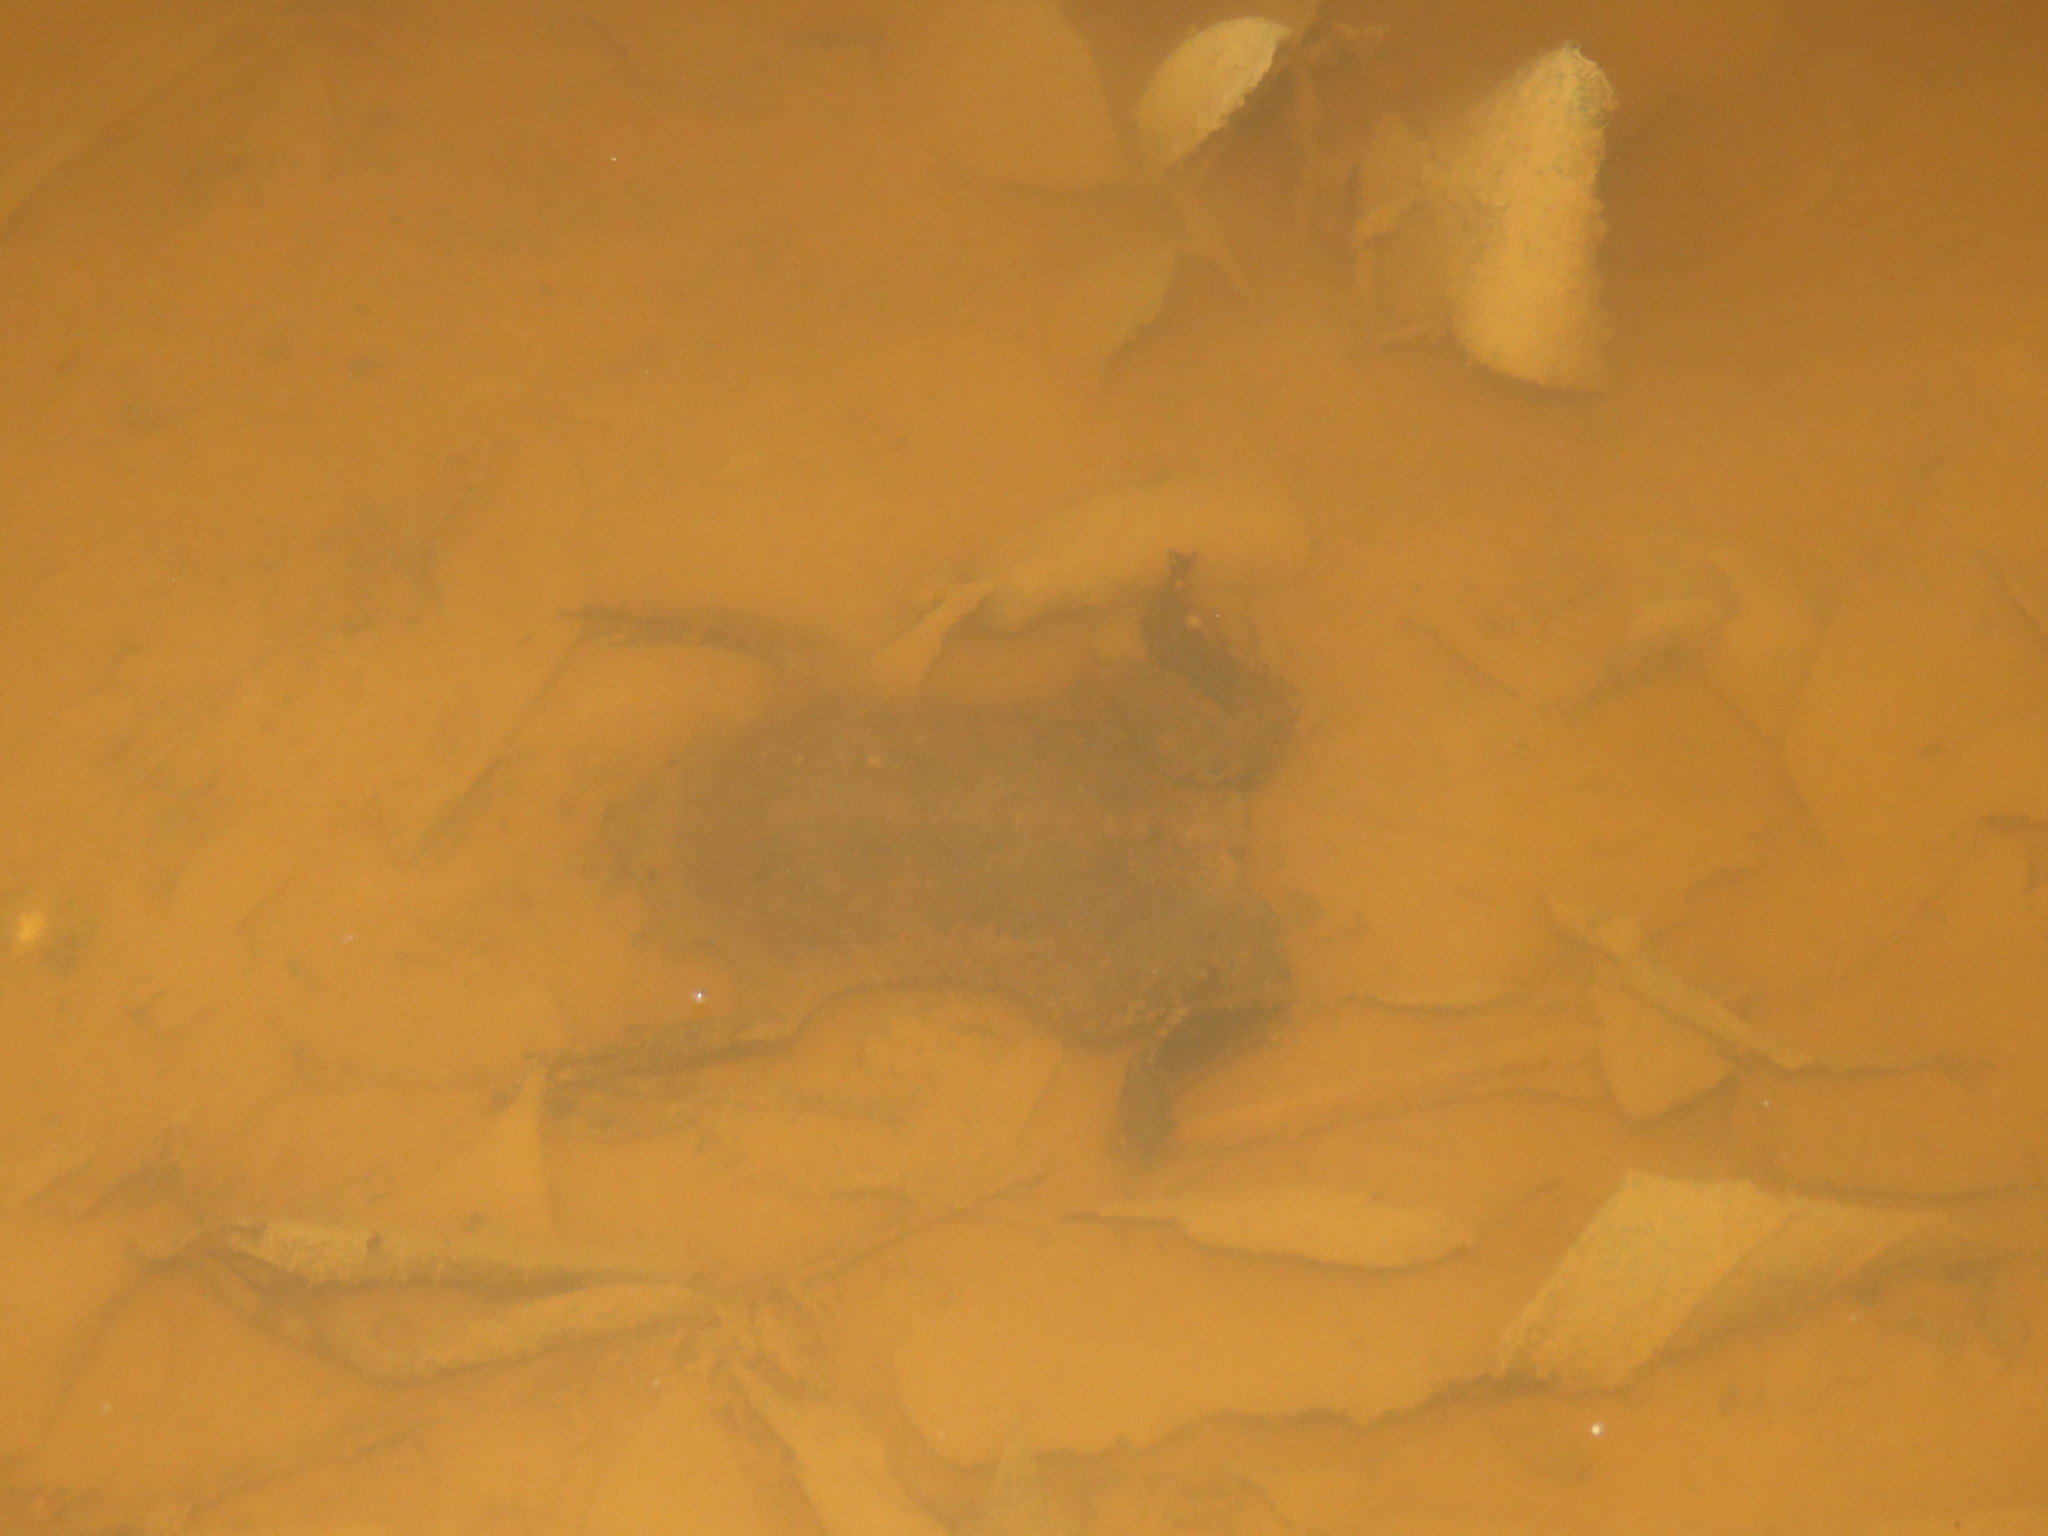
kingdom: Animalia
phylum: Chordata
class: Amphibia
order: Anura
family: Pipidae
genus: Pipa
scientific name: Pipa pipa
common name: Surinam toad
